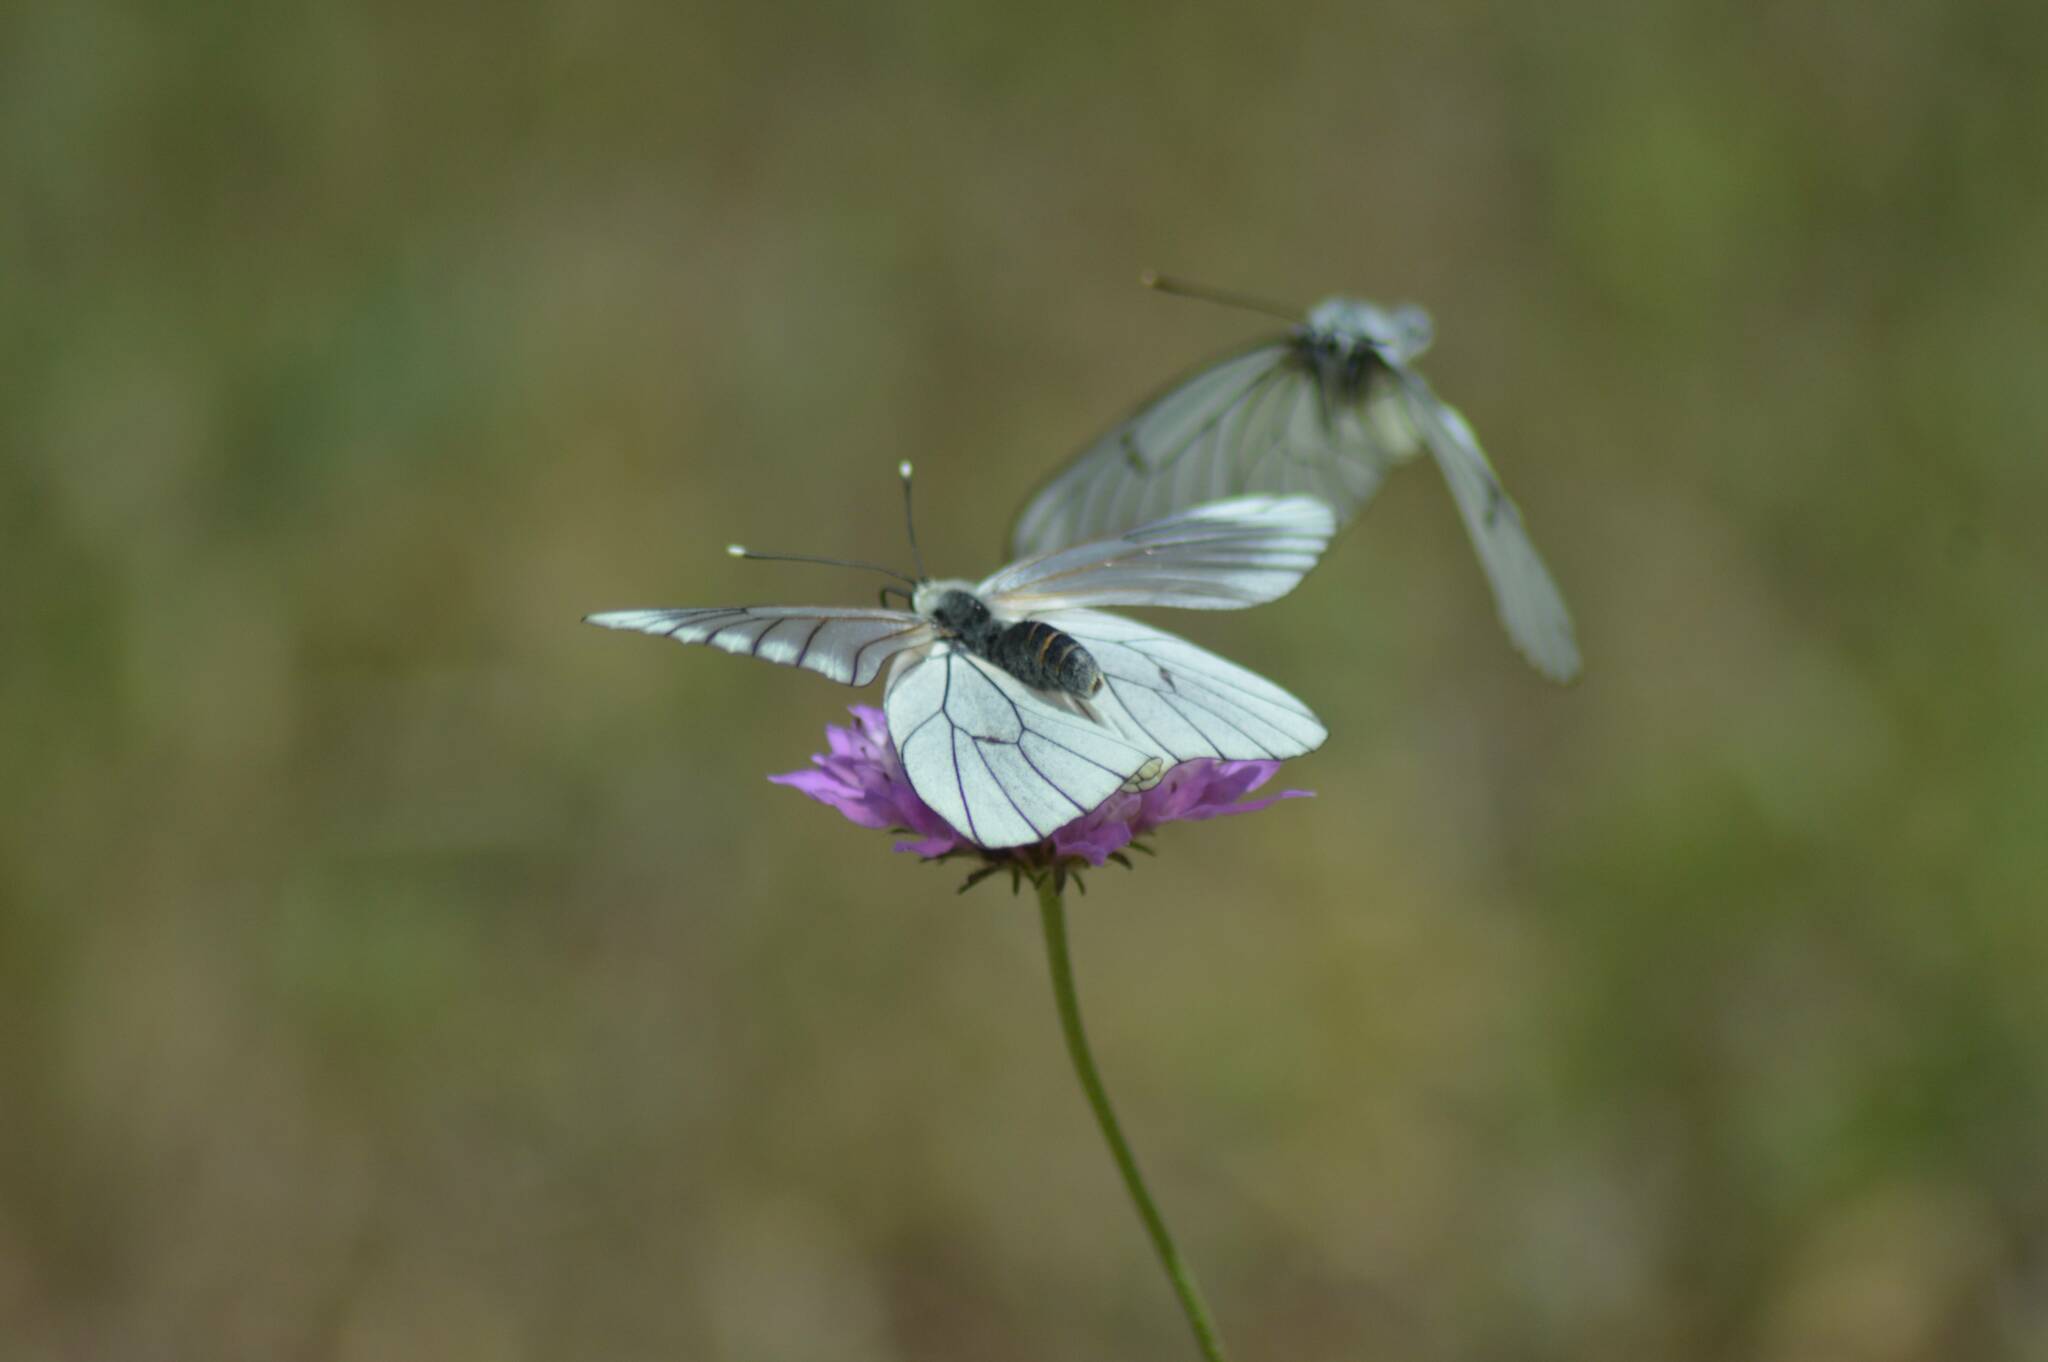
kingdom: Animalia
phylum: Arthropoda
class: Insecta
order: Lepidoptera
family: Pieridae
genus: Aporia
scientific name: Aporia crataegi
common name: Black-veined white
